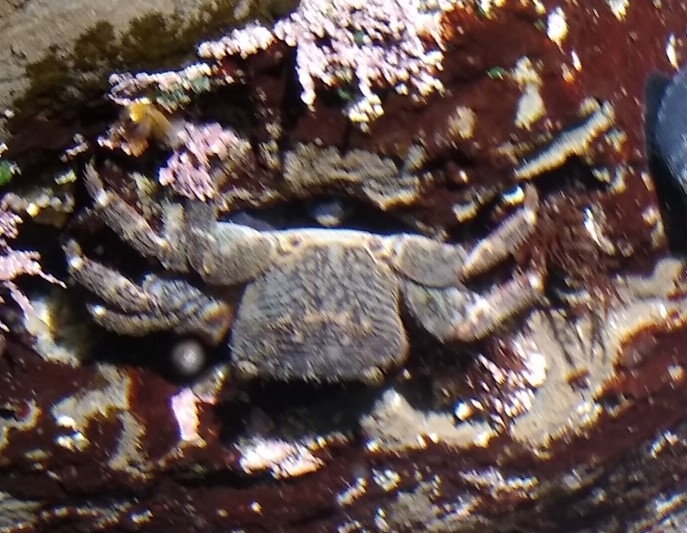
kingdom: Animalia
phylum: Arthropoda
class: Malacostraca
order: Decapoda
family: Grapsidae
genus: Pachygrapsus
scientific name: Pachygrapsus crassipes
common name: Striped shore crab
